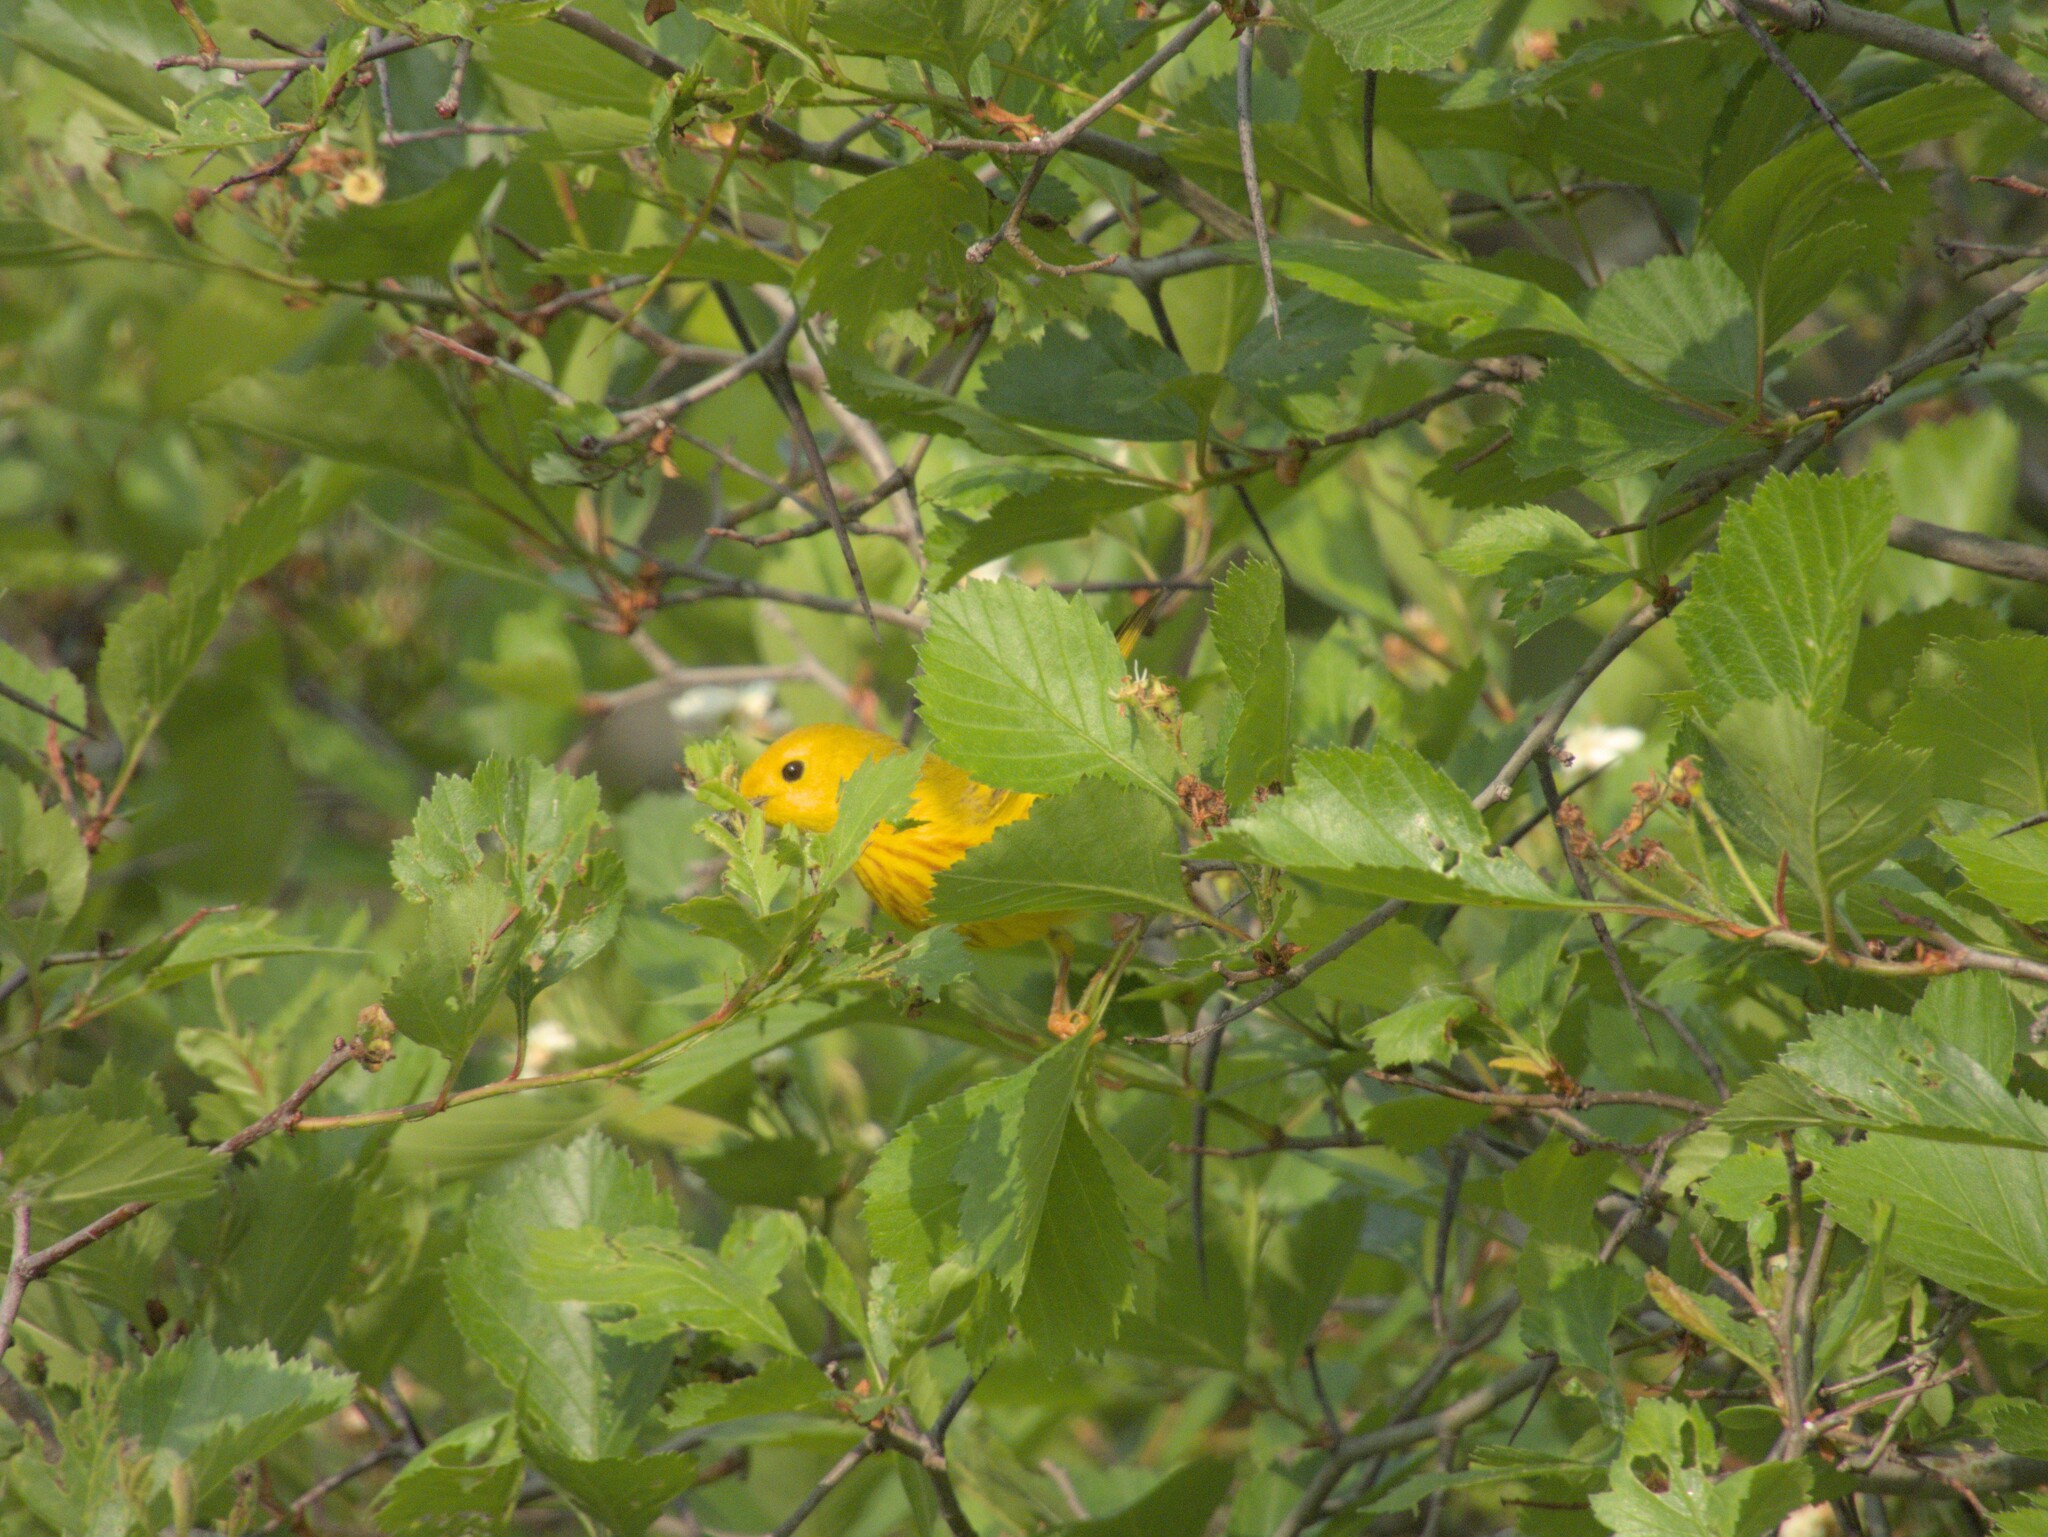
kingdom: Animalia
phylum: Chordata
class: Aves
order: Passeriformes
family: Parulidae
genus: Setophaga
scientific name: Setophaga petechia
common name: Yellow warbler
